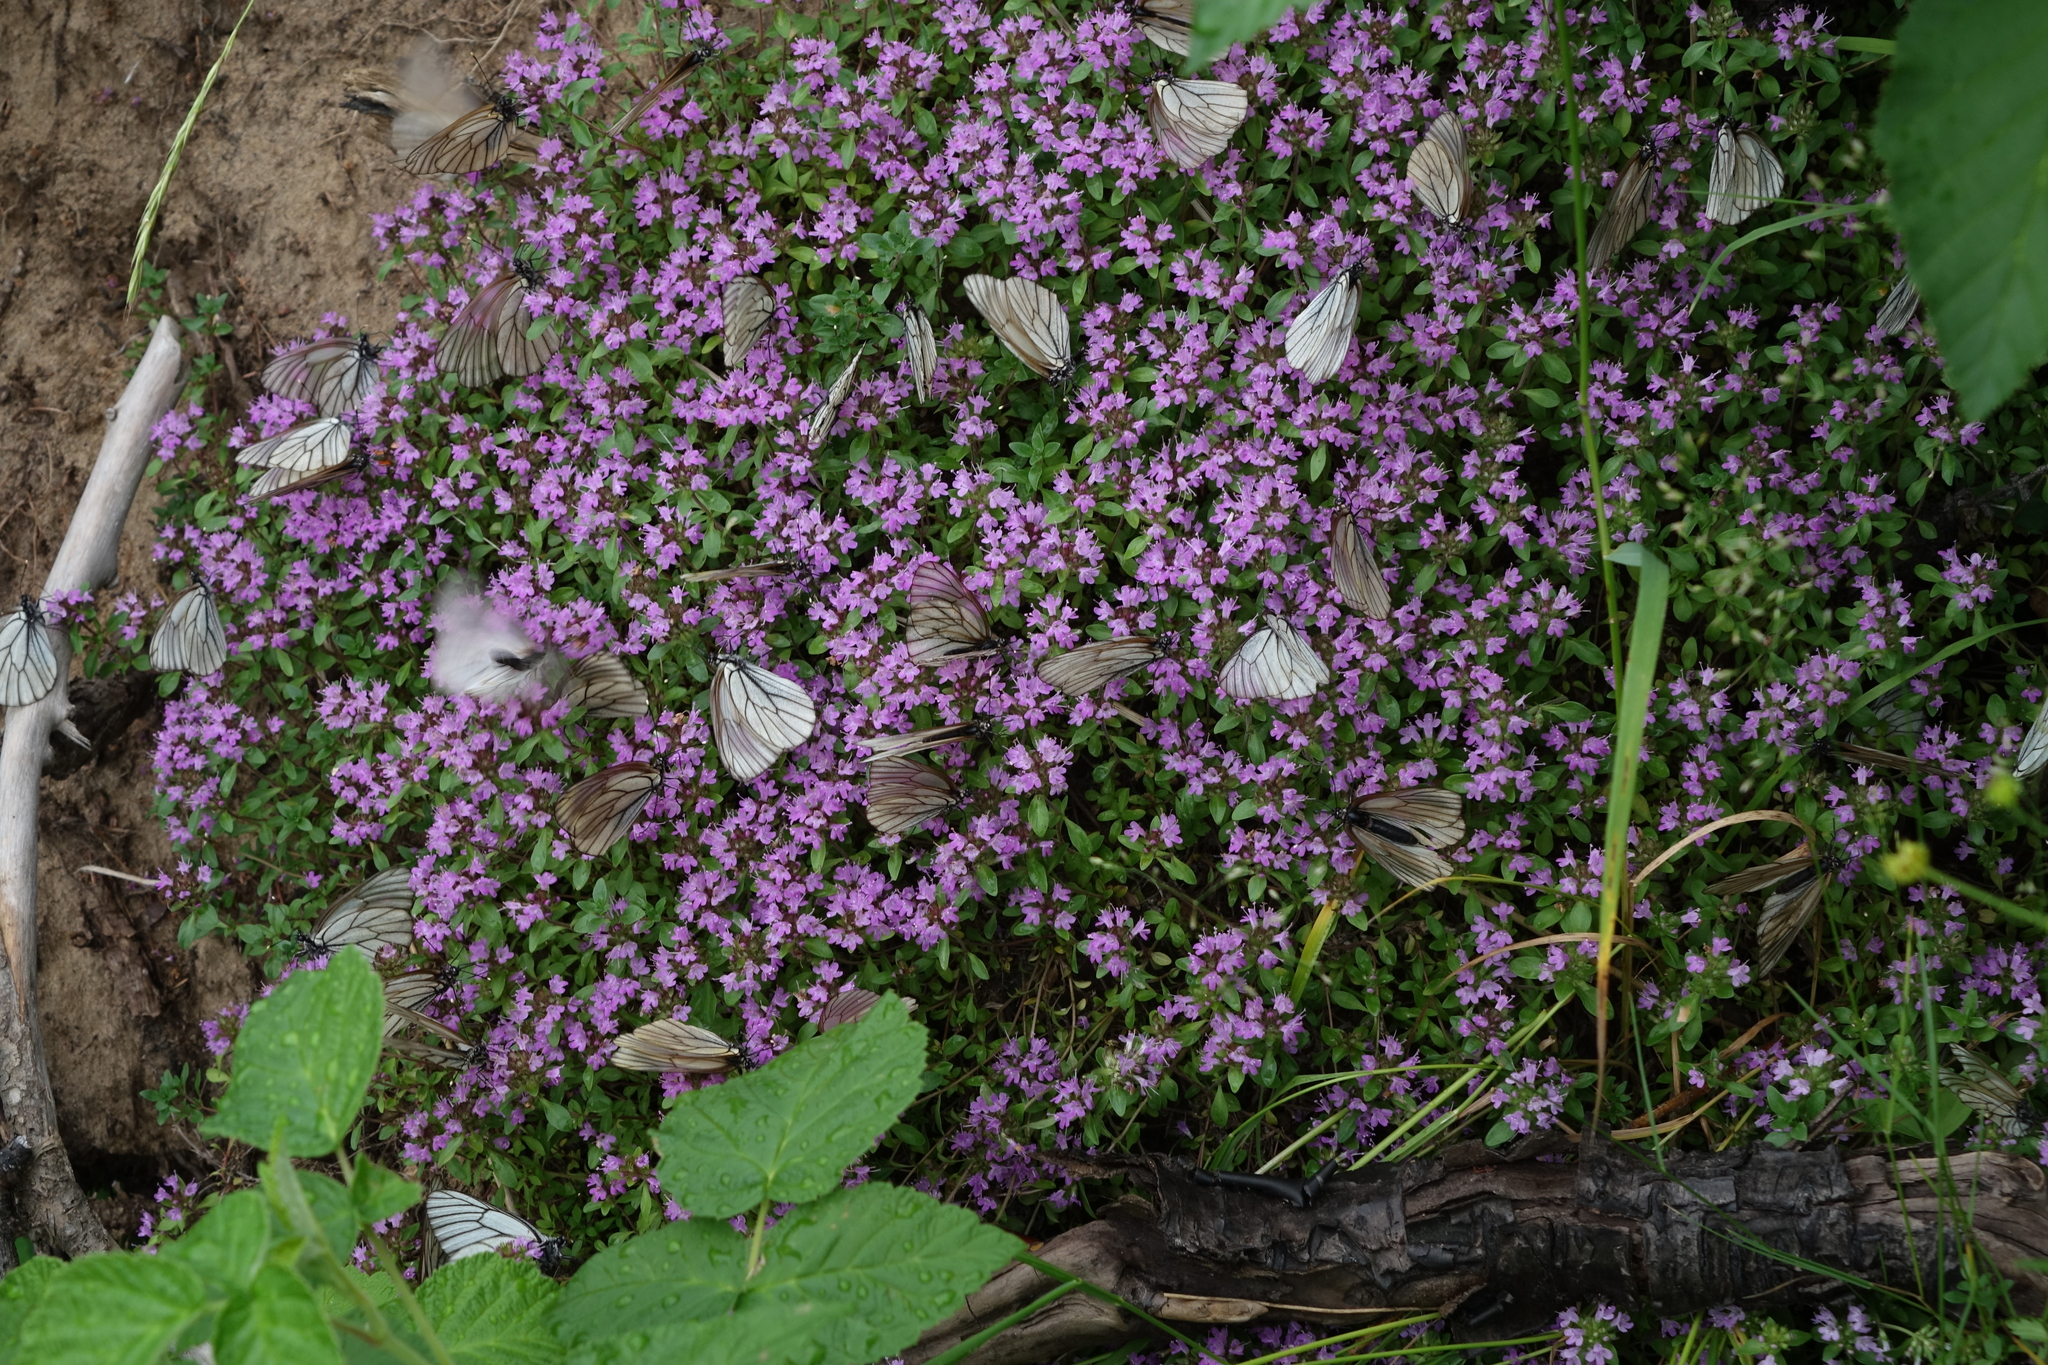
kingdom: Animalia
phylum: Arthropoda
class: Insecta
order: Lepidoptera
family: Pieridae
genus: Aporia
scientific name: Aporia crataegi
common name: Black-veined white
